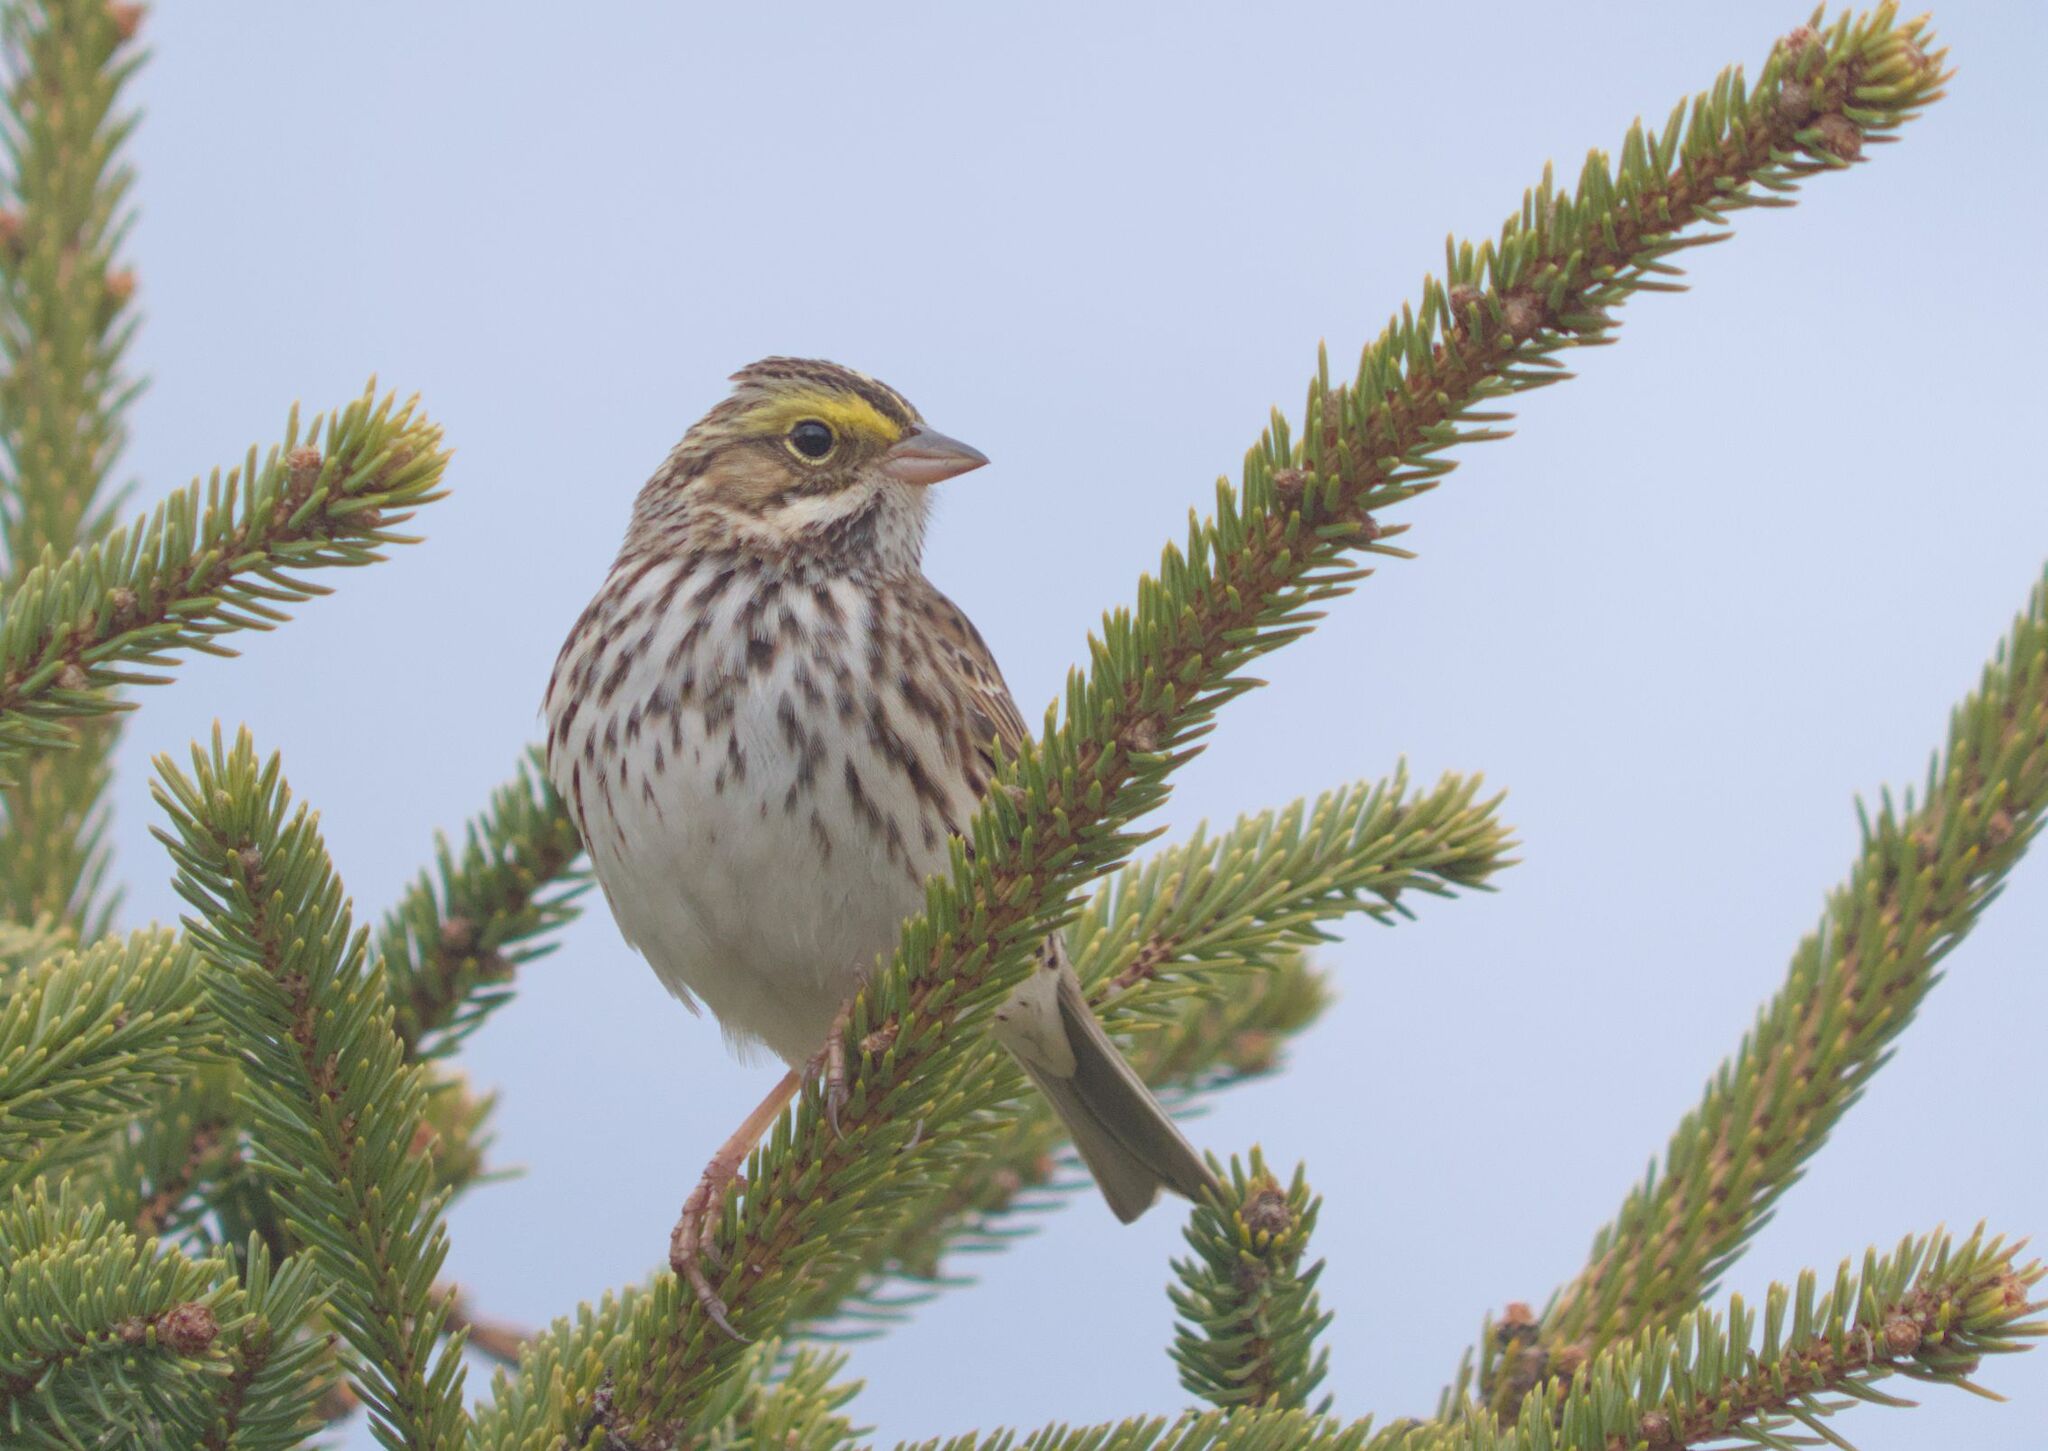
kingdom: Animalia
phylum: Chordata
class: Aves
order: Passeriformes
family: Passerellidae
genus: Passerculus
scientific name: Passerculus sandwichensis
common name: Savannah sparrow
